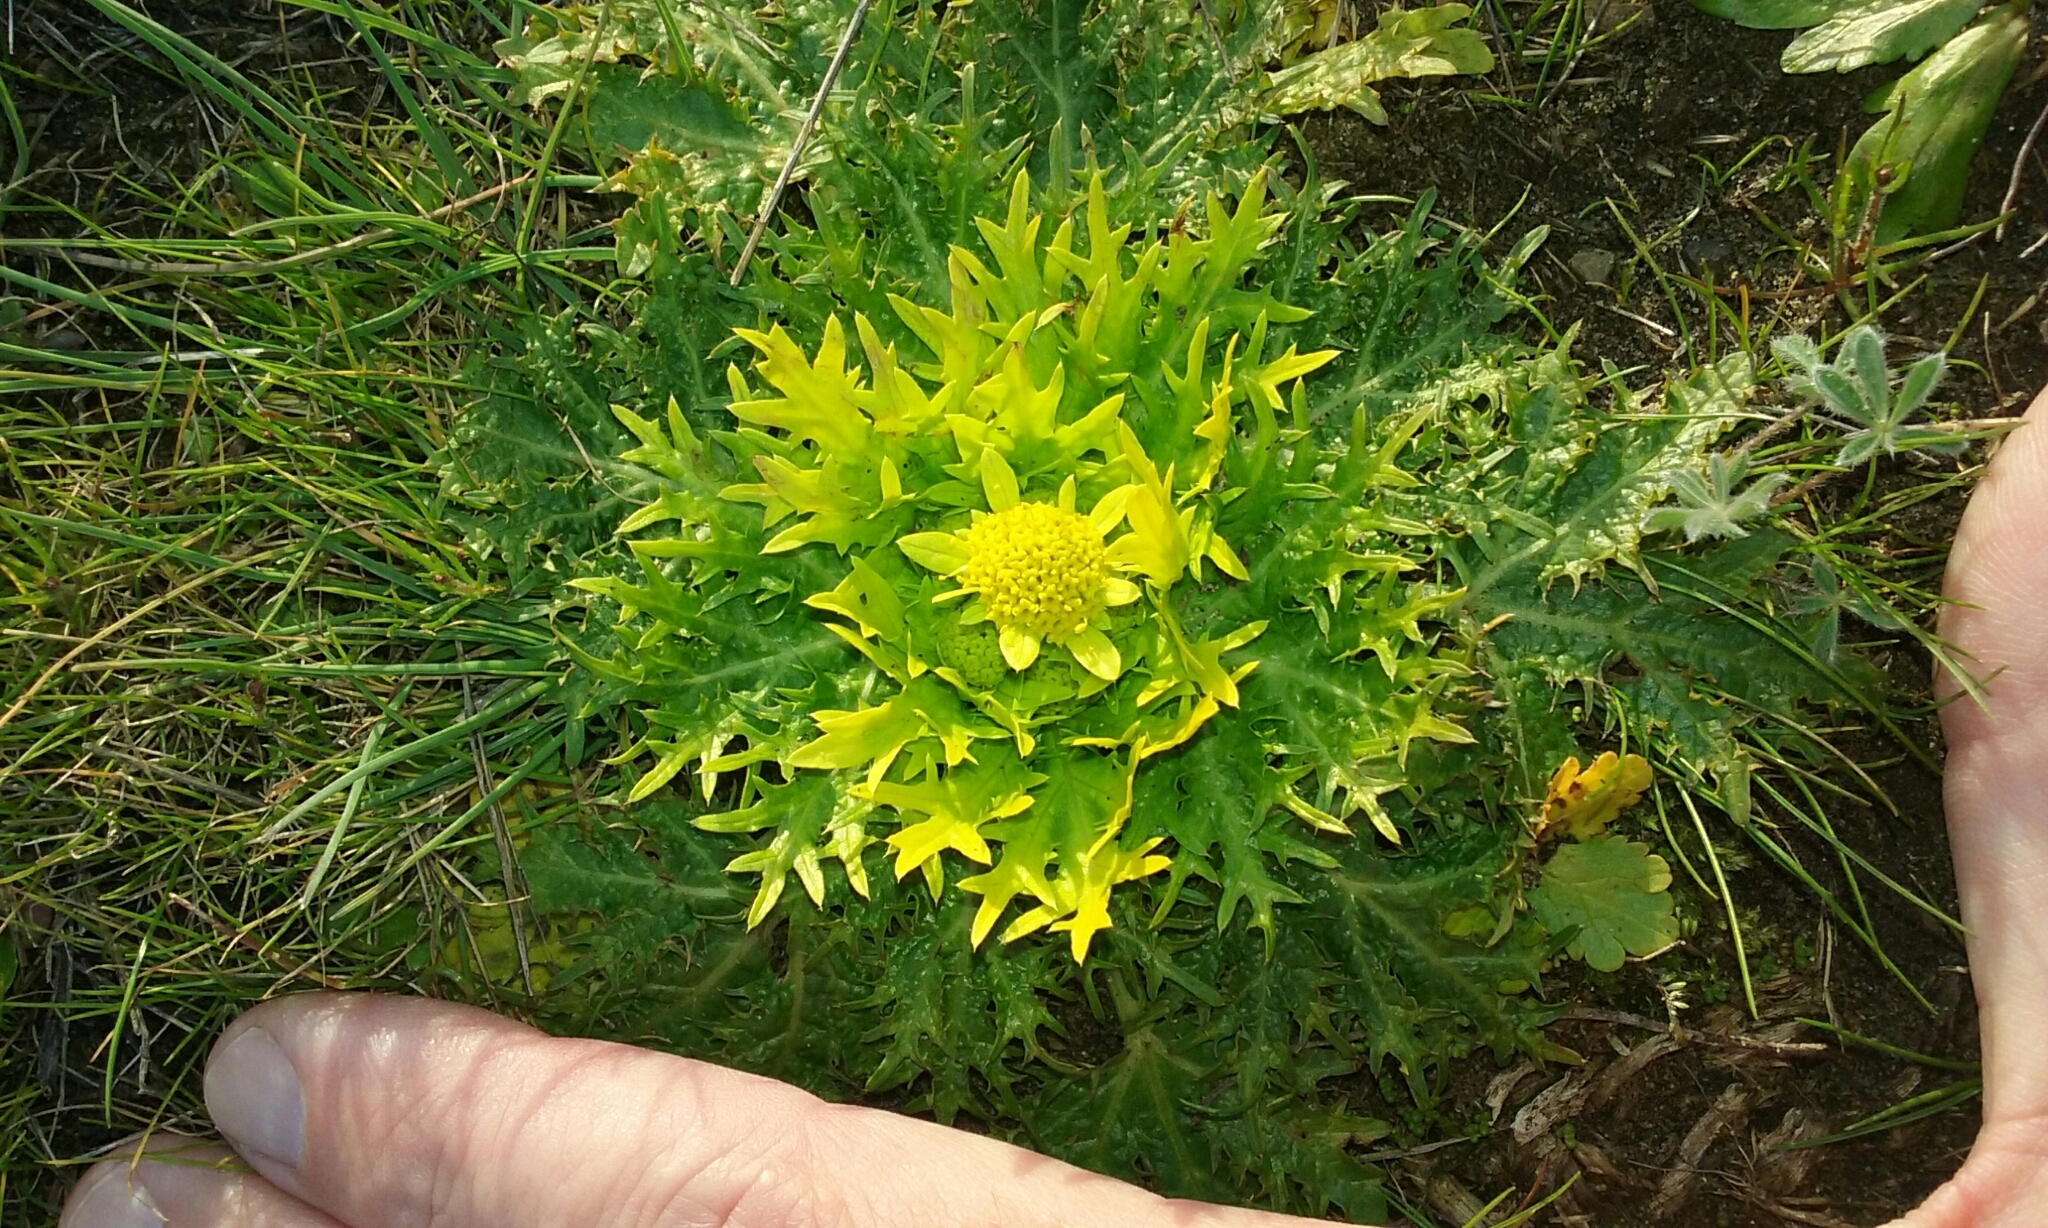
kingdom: Plantae
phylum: Tracheophyta
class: Magnoliopsida
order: Apiales
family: Apiaceae
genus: Sanicula
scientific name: Sanicula arctopoides
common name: Footsteps-of-spring
